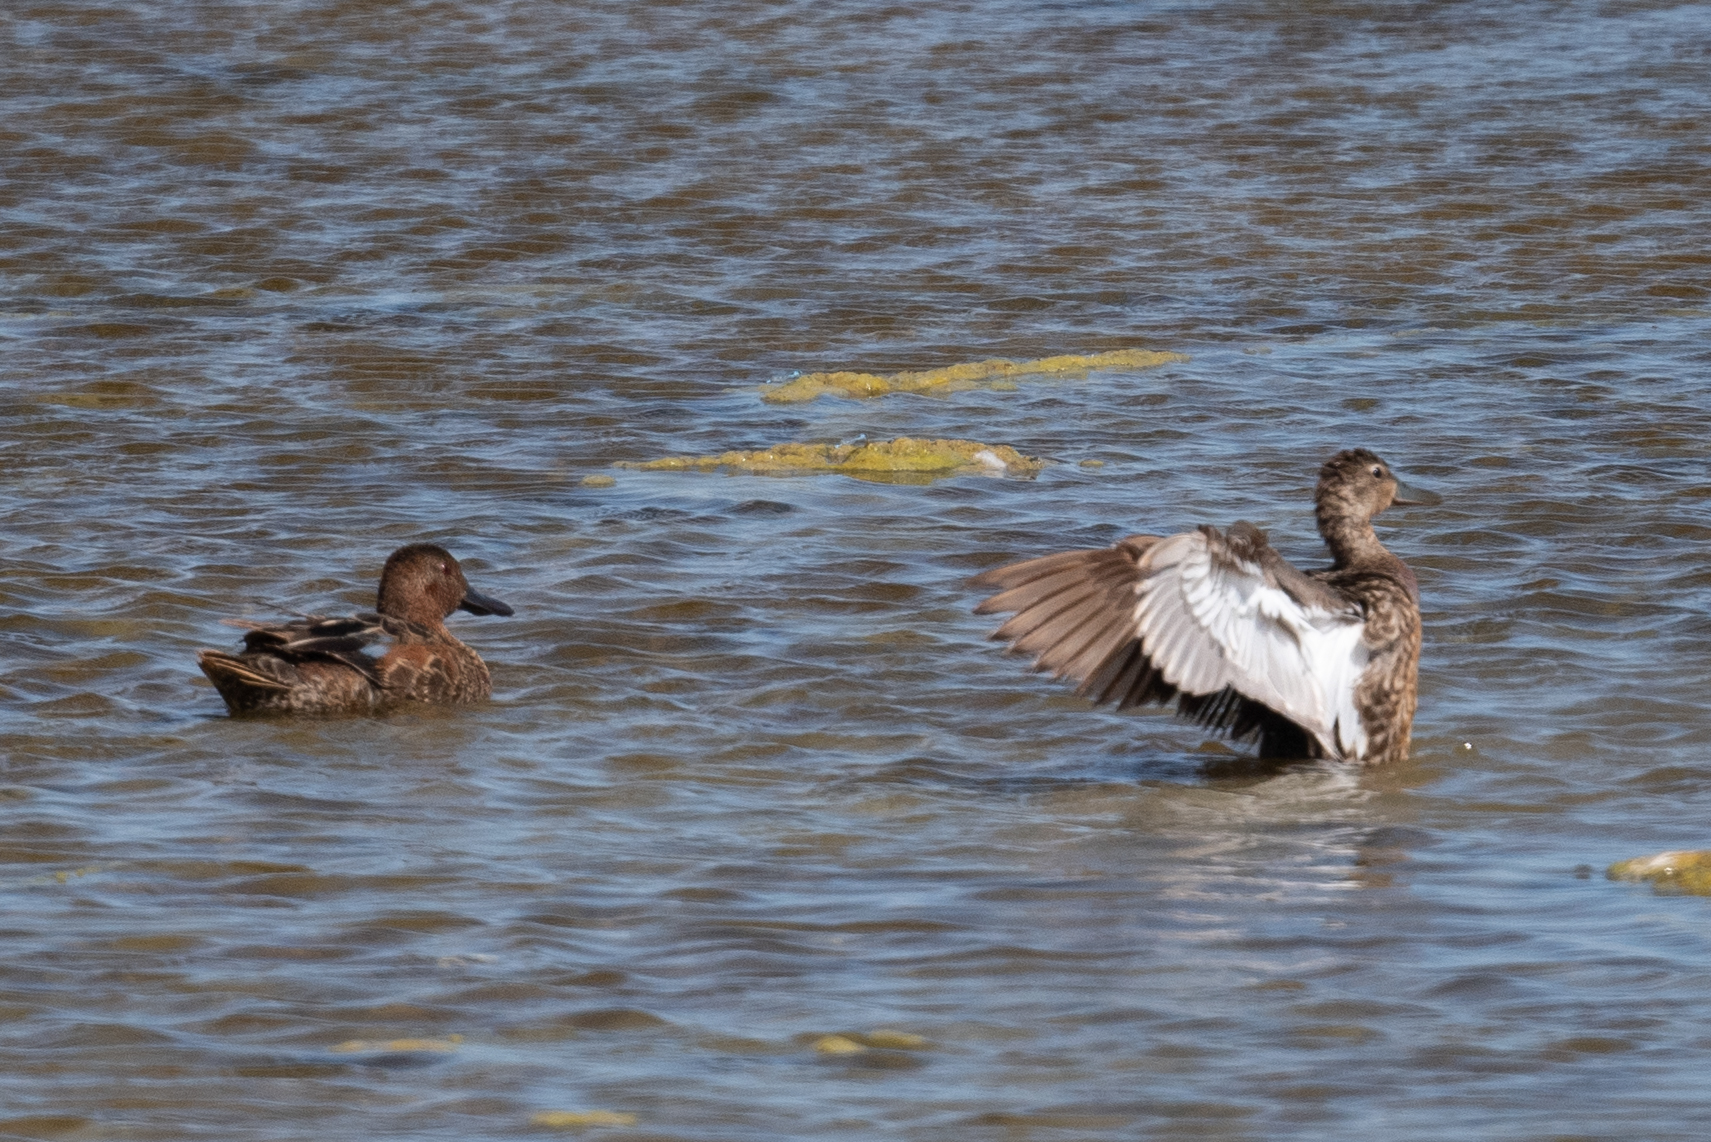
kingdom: Animalia
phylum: Chordata
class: Aves
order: Anseriformes
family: Anatidae
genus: Spatula
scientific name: Spatula cyanoptera
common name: Cinnamon teal
